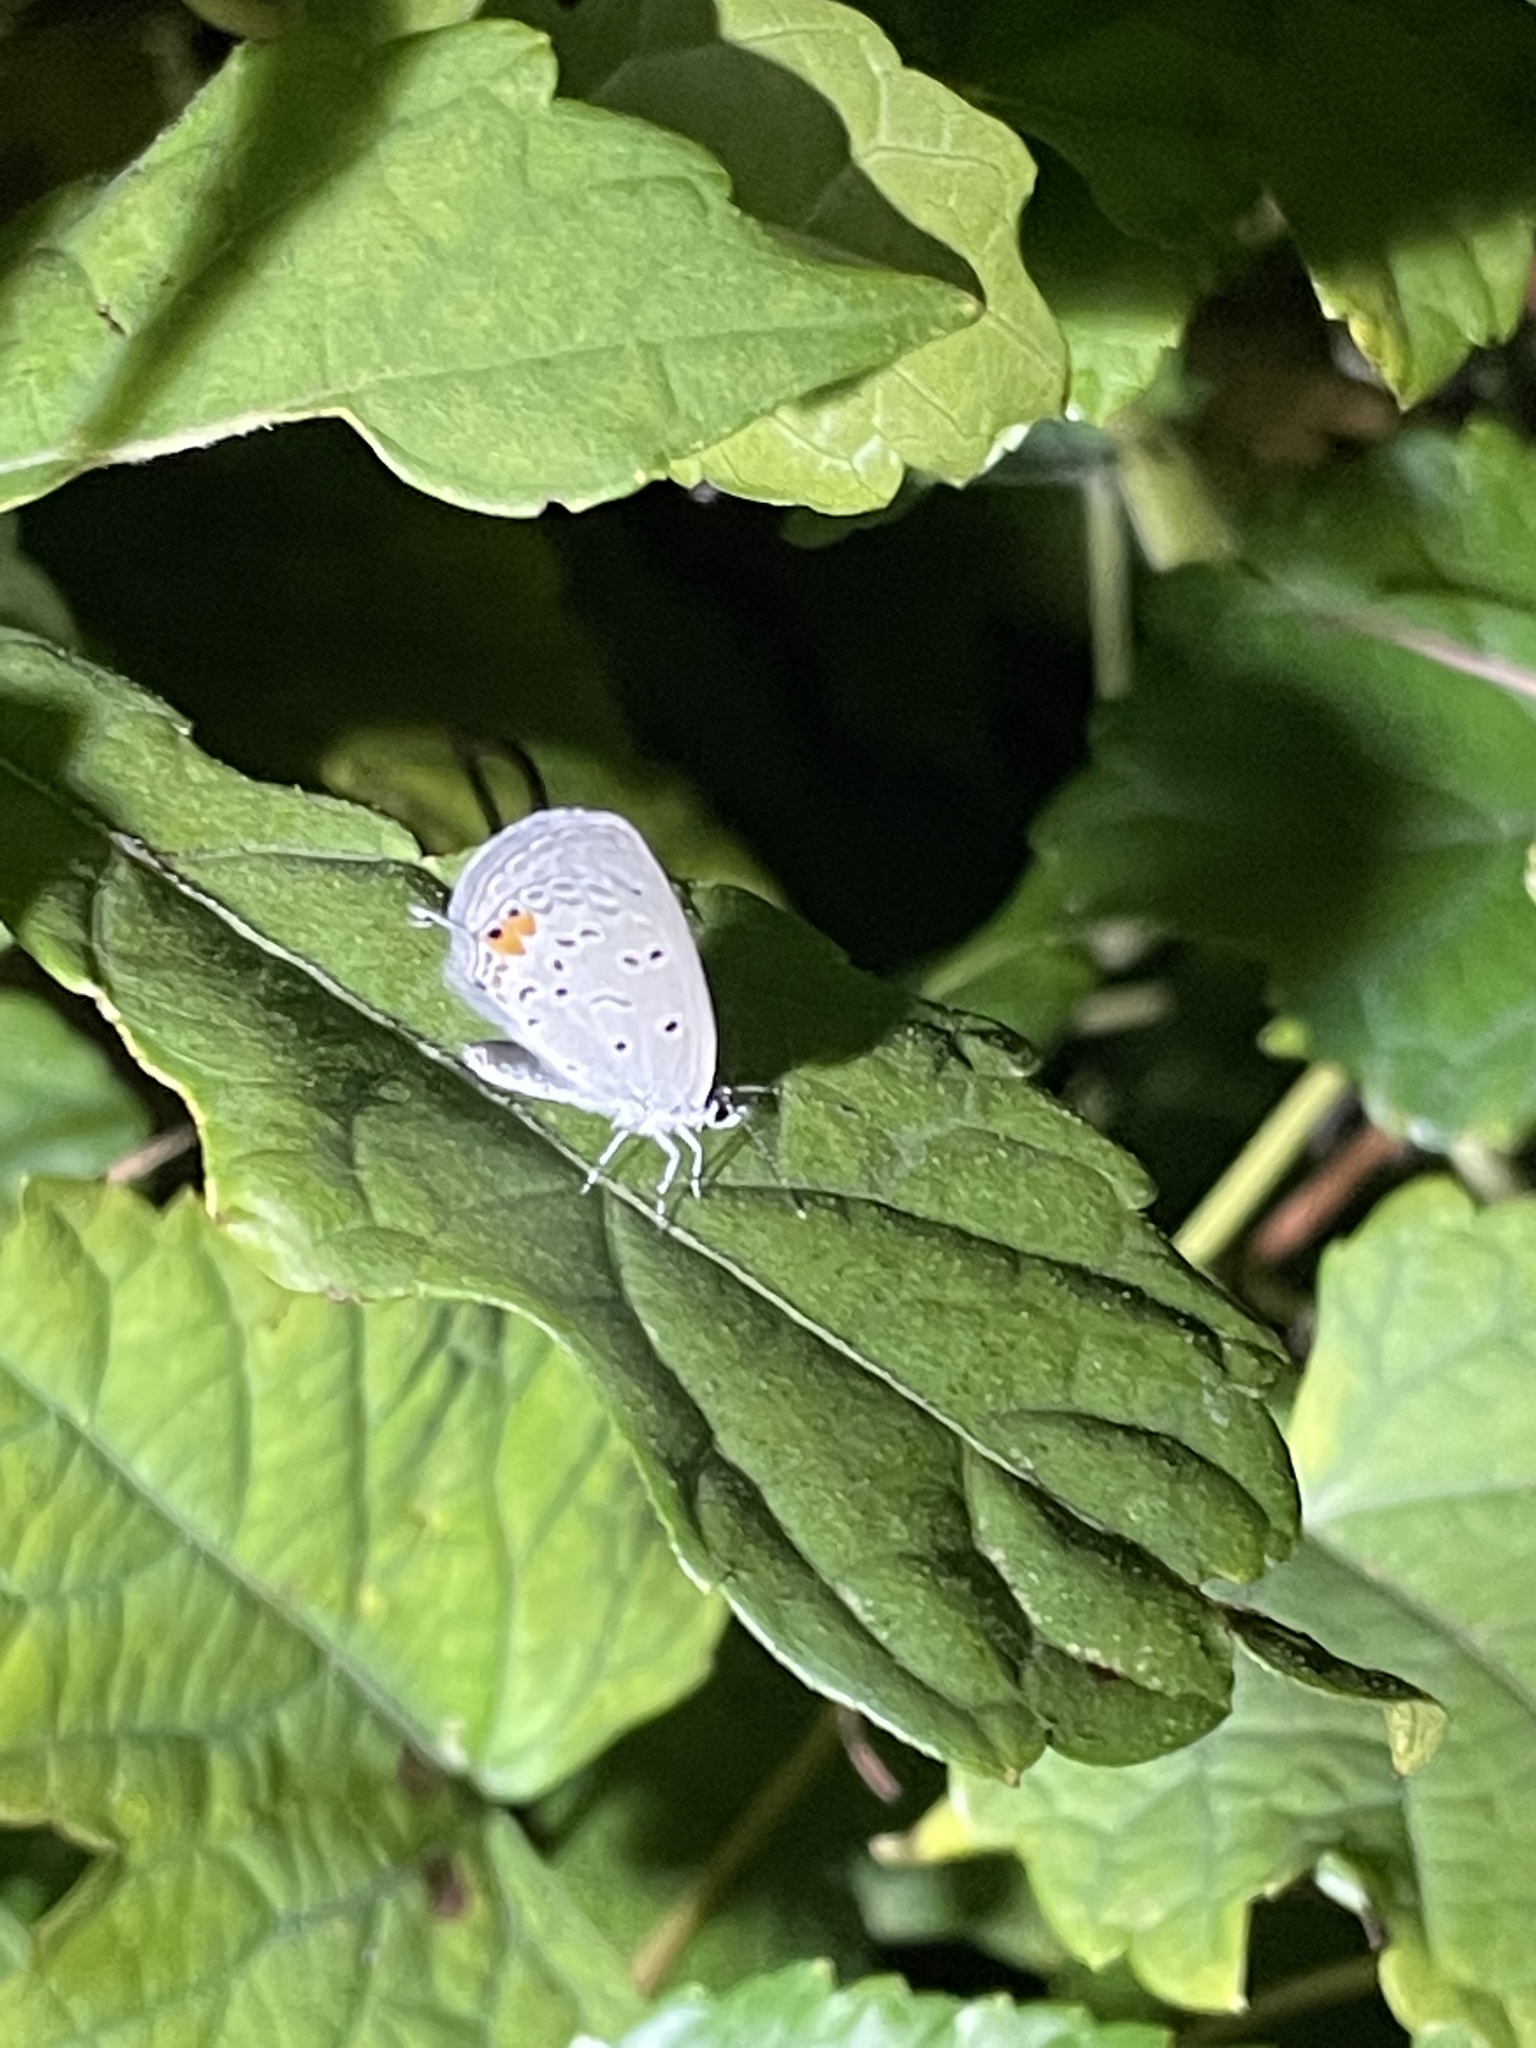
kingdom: Animalia
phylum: Arthropoda
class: Insecta
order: Lepidoptera
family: Lycaenidae
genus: Elkalyce
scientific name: Elkalyce comyntas
